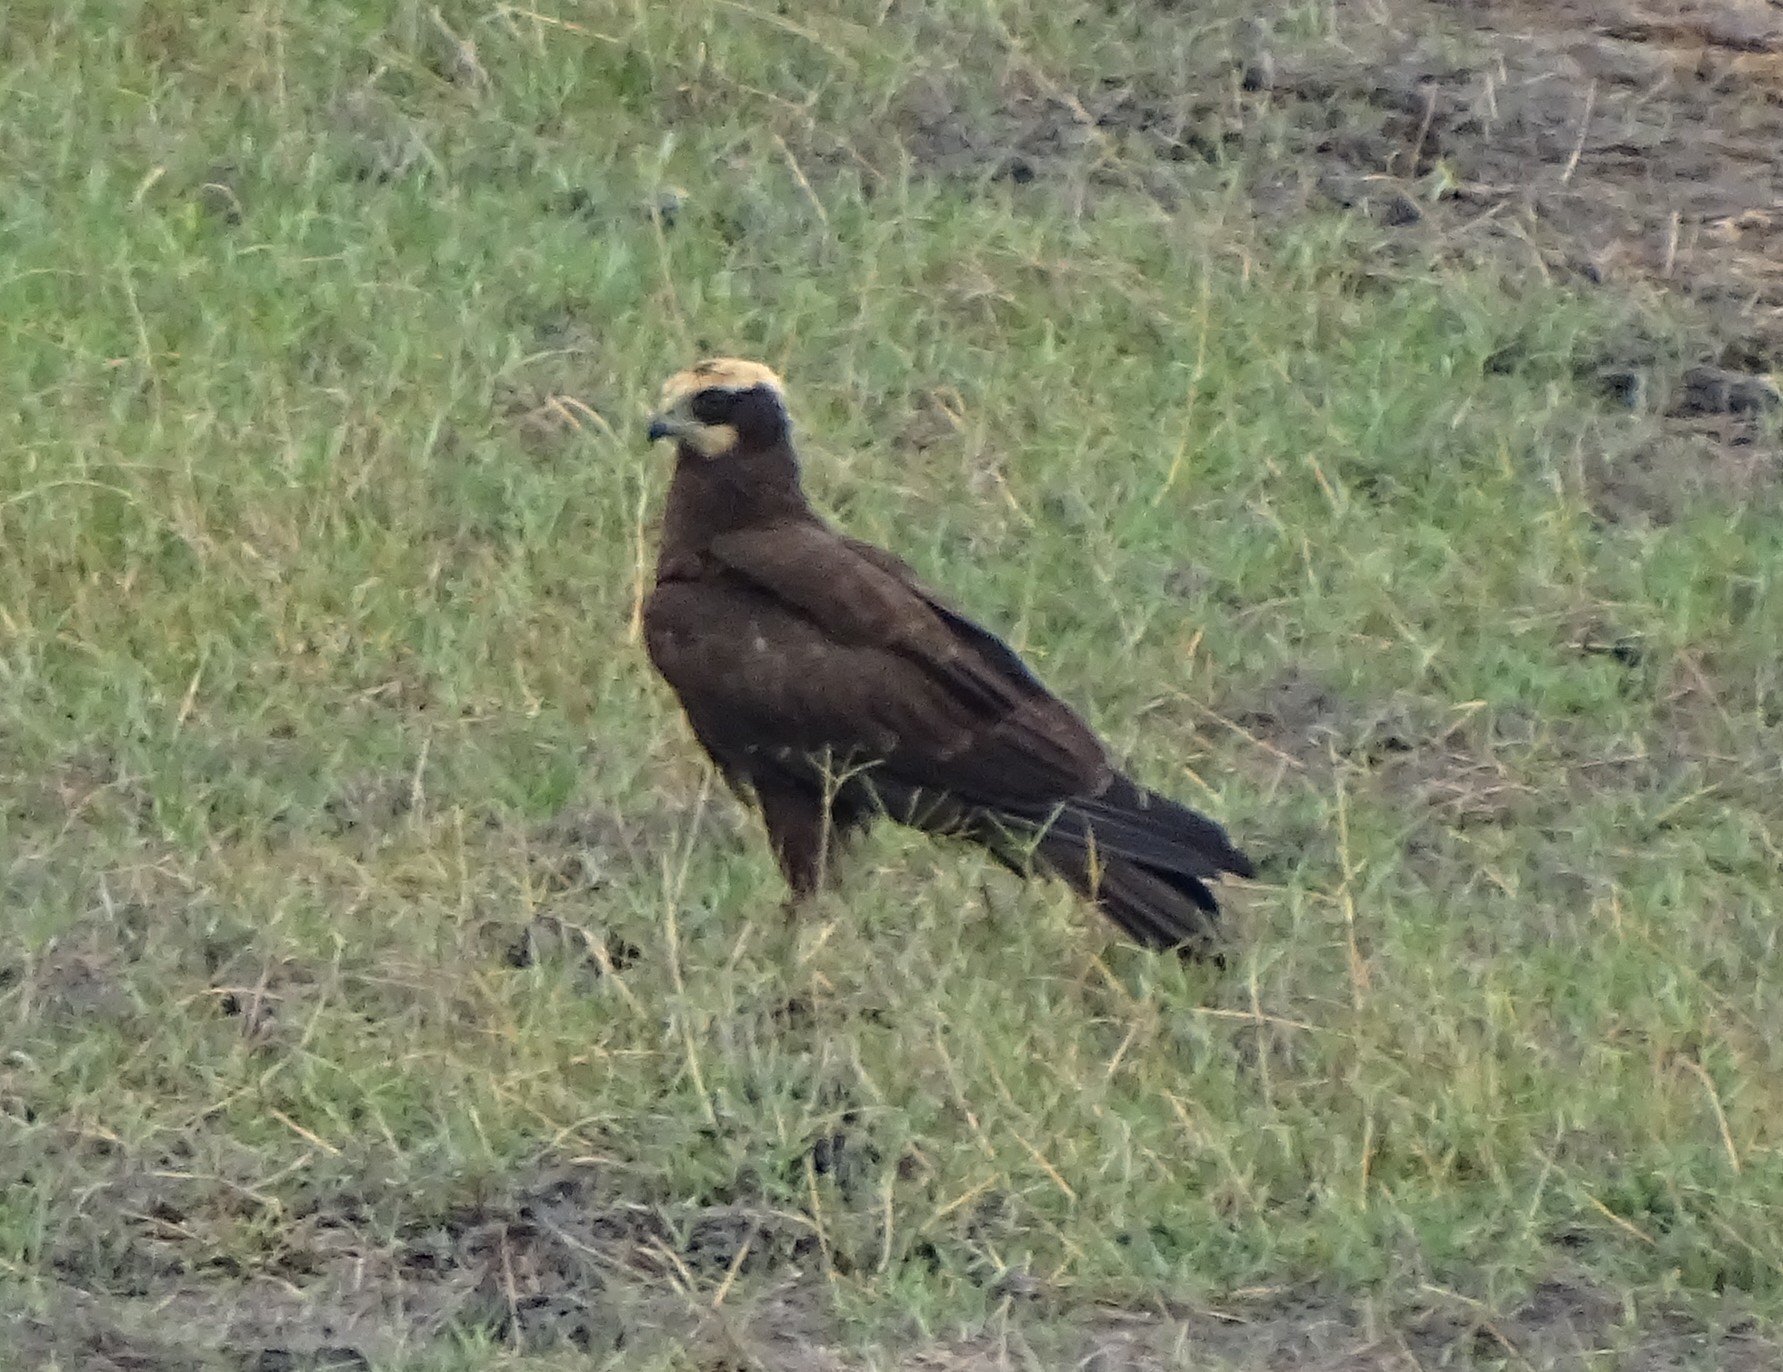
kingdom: Animalia
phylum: Chordata
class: Aves
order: Accipitriformes
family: Accipitridae
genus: Circus
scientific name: Circus aeruginosus
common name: Western marsh harrier
